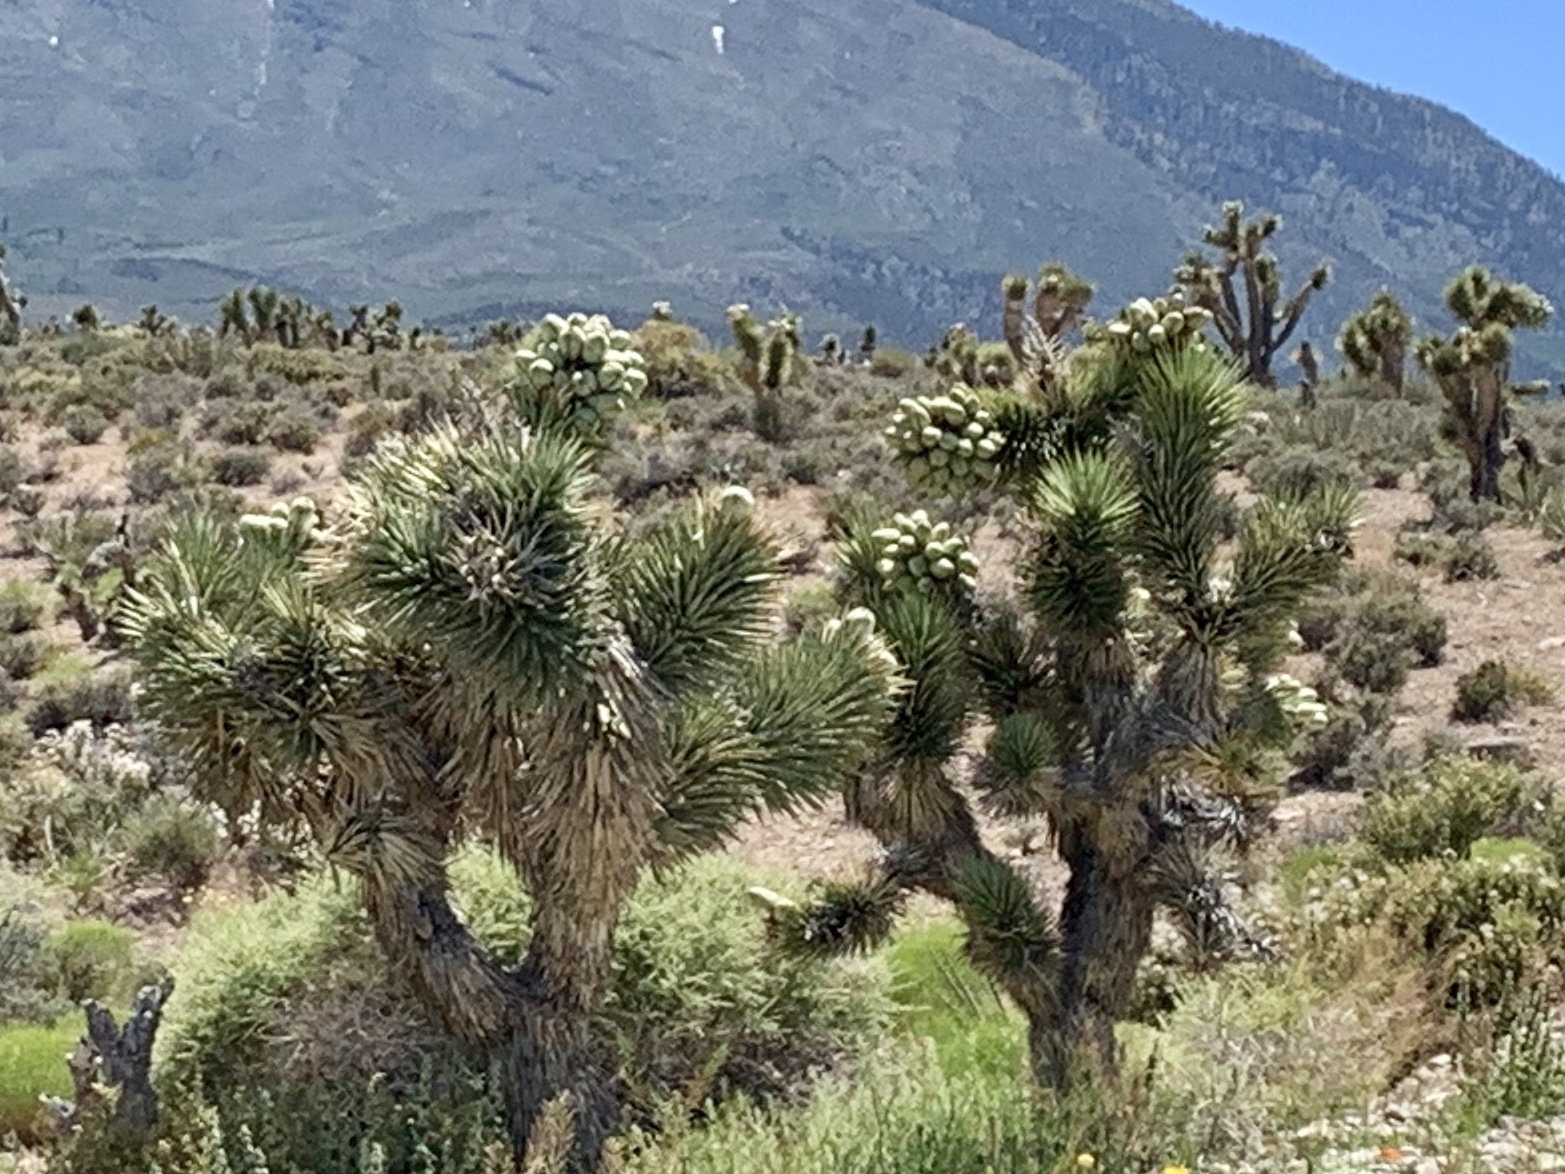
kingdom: Plantae
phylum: Tracheophyta
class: Liliopsida
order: Asparagales
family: Asparagaceae
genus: Yucca
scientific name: Yucca brevifolia
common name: Joshua tree
